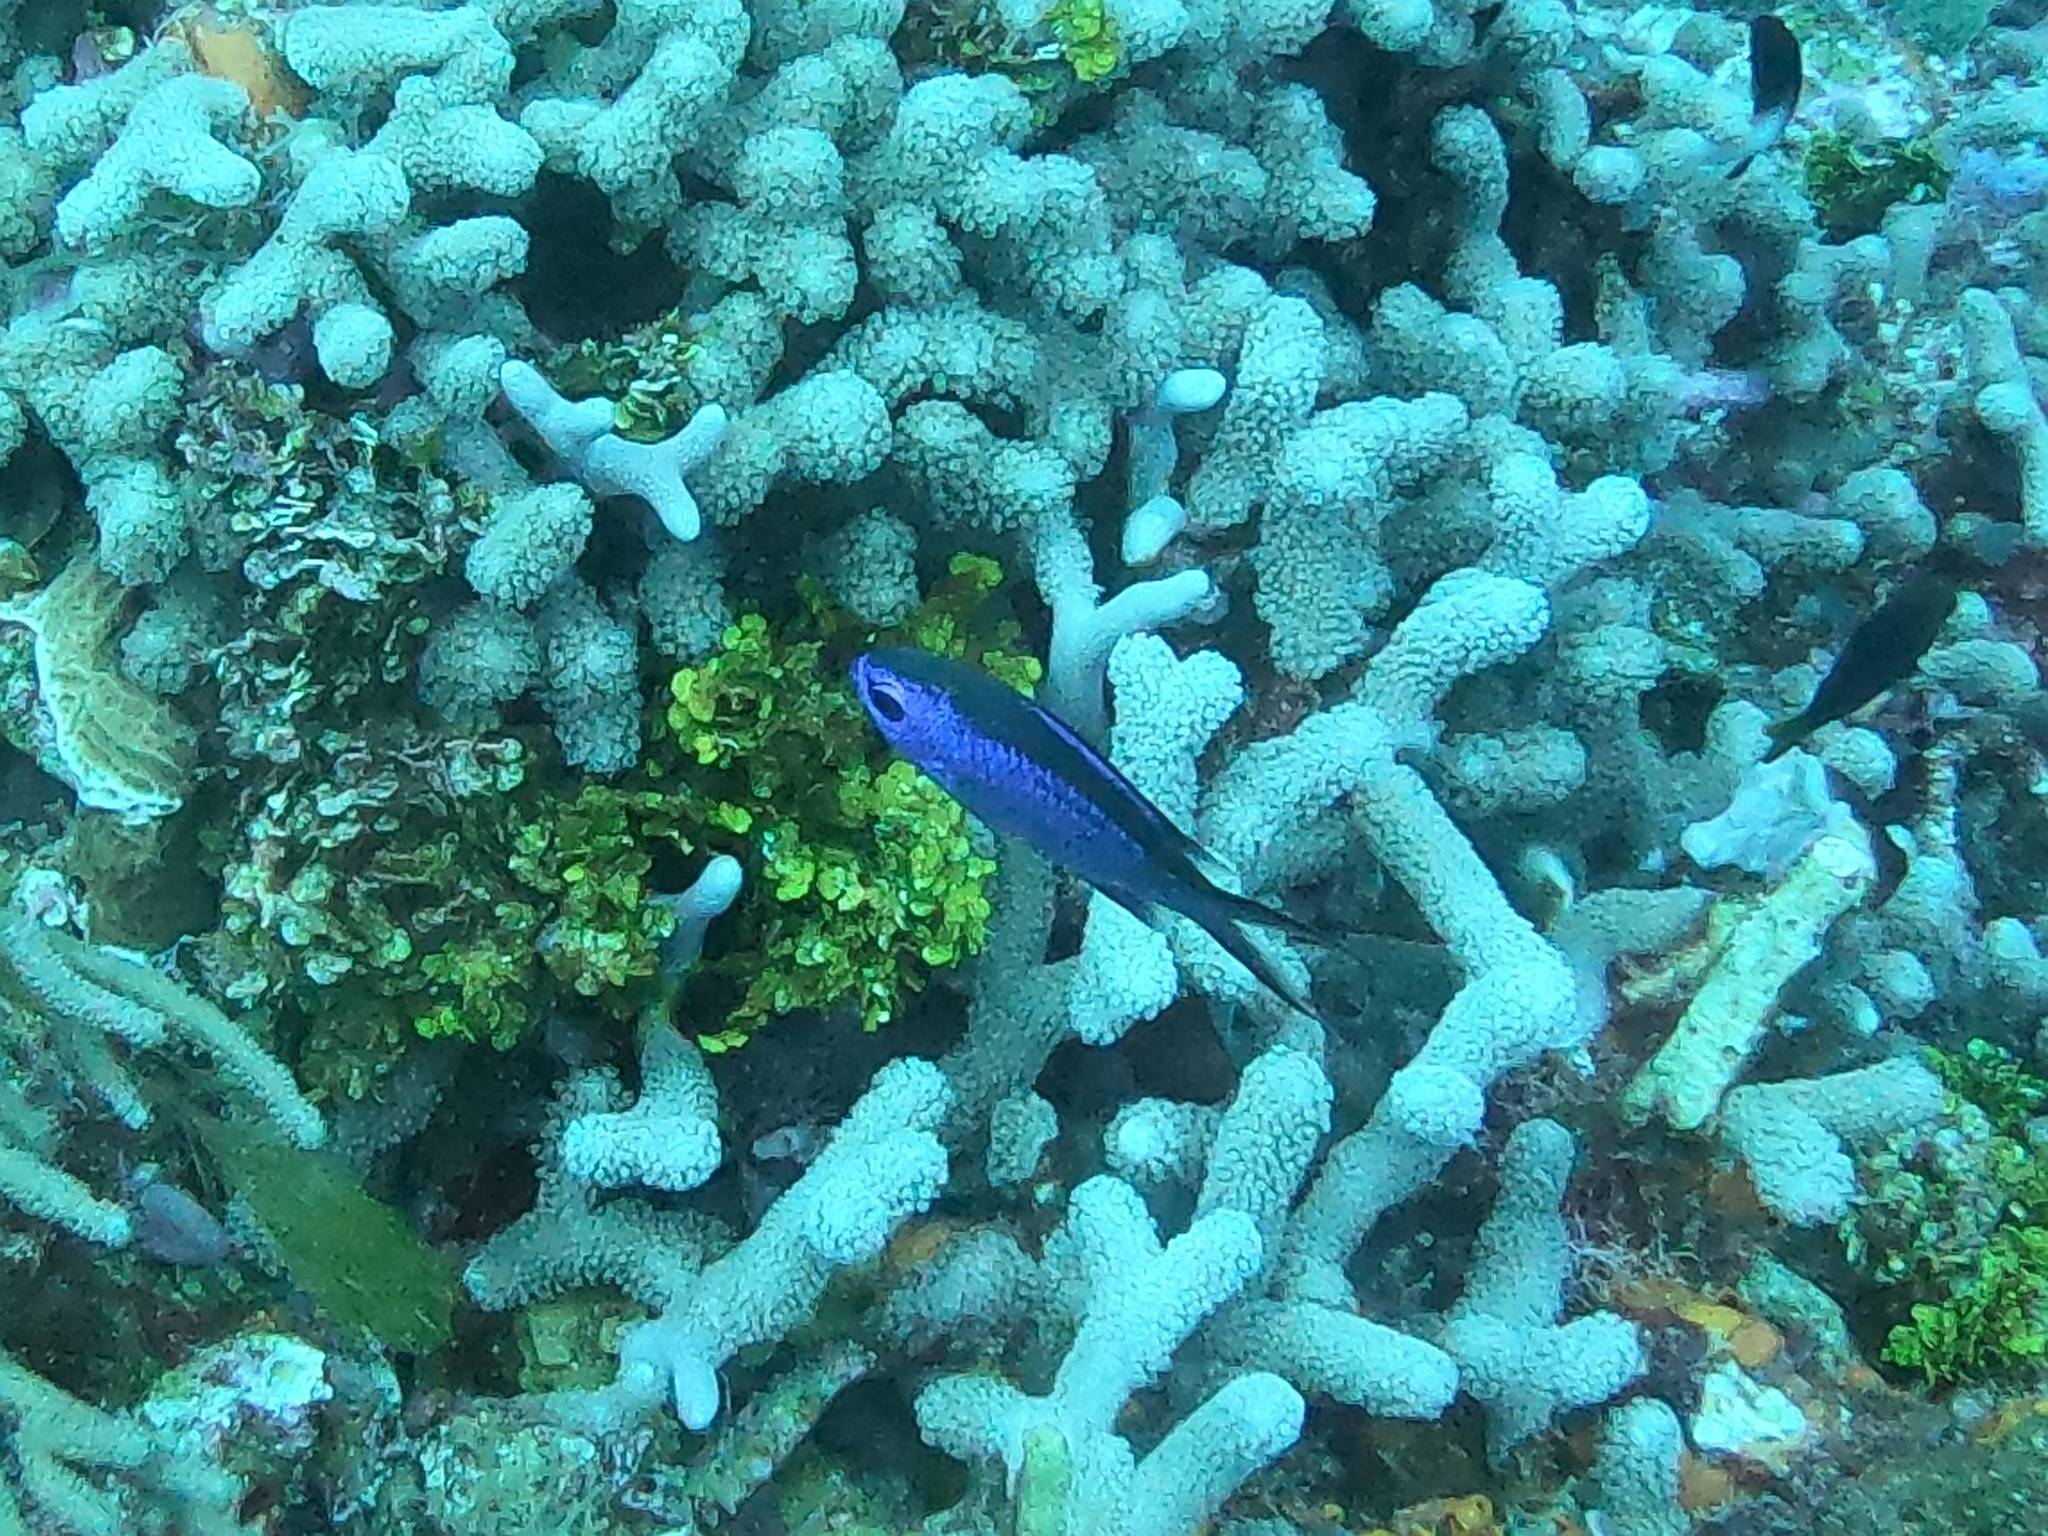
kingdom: Animalia
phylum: Chordata
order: Perciformes
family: Pomacentridae
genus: Chromis
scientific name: Chromis cyanea
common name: Blue chromis
